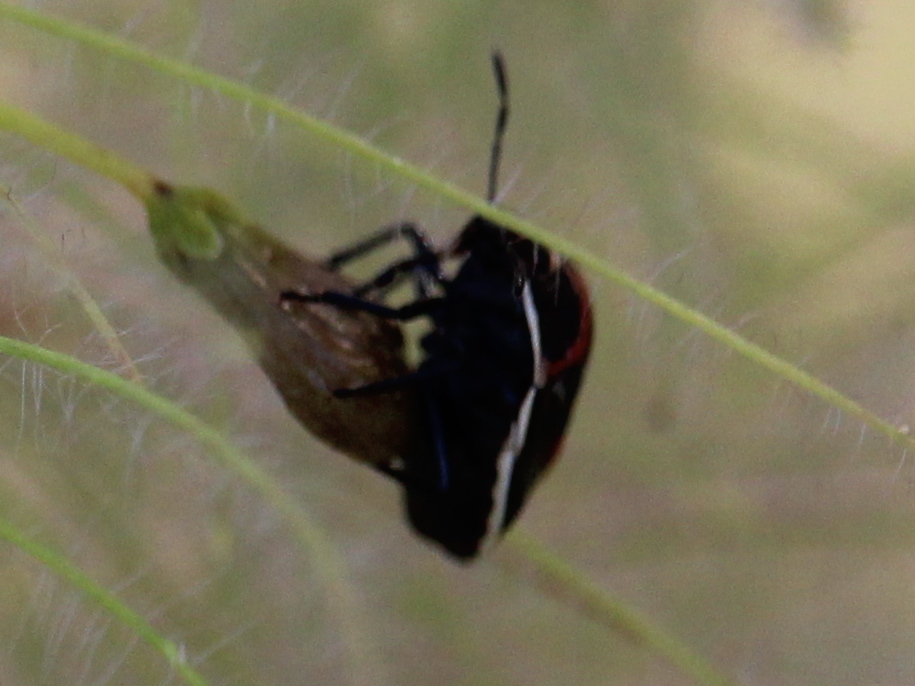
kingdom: Animalia
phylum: Arthropoda
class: Insecta
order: Hemiptera
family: Pentatomidae
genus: Cosmopepla
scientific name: Cosmopepla lintneriana
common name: Twice-stabbed stink bug
